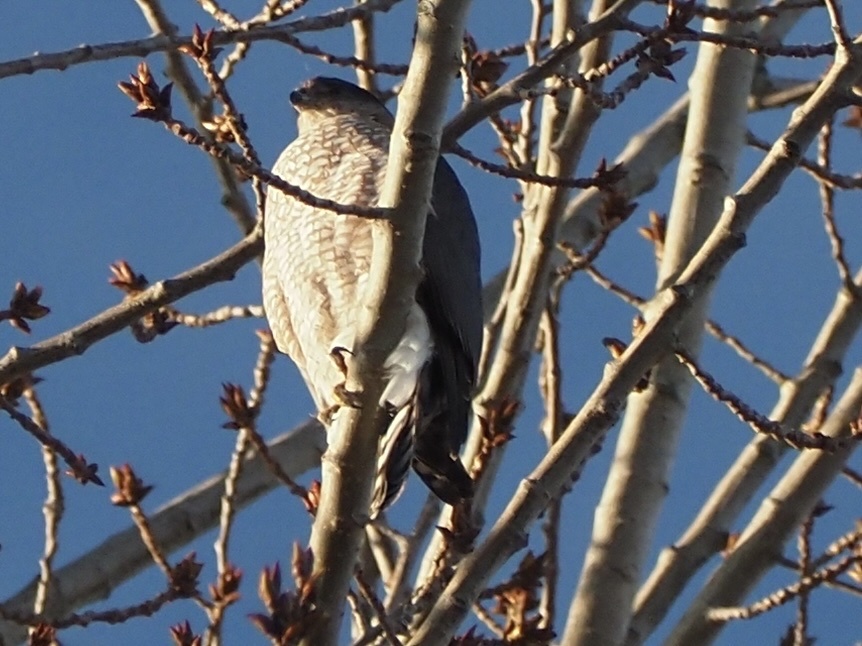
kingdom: Animalia
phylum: Chordata
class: Aves
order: Accipitriformes
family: Accipitridae
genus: Accipiter
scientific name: Accipiter cooperii
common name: Cooper's hawk
